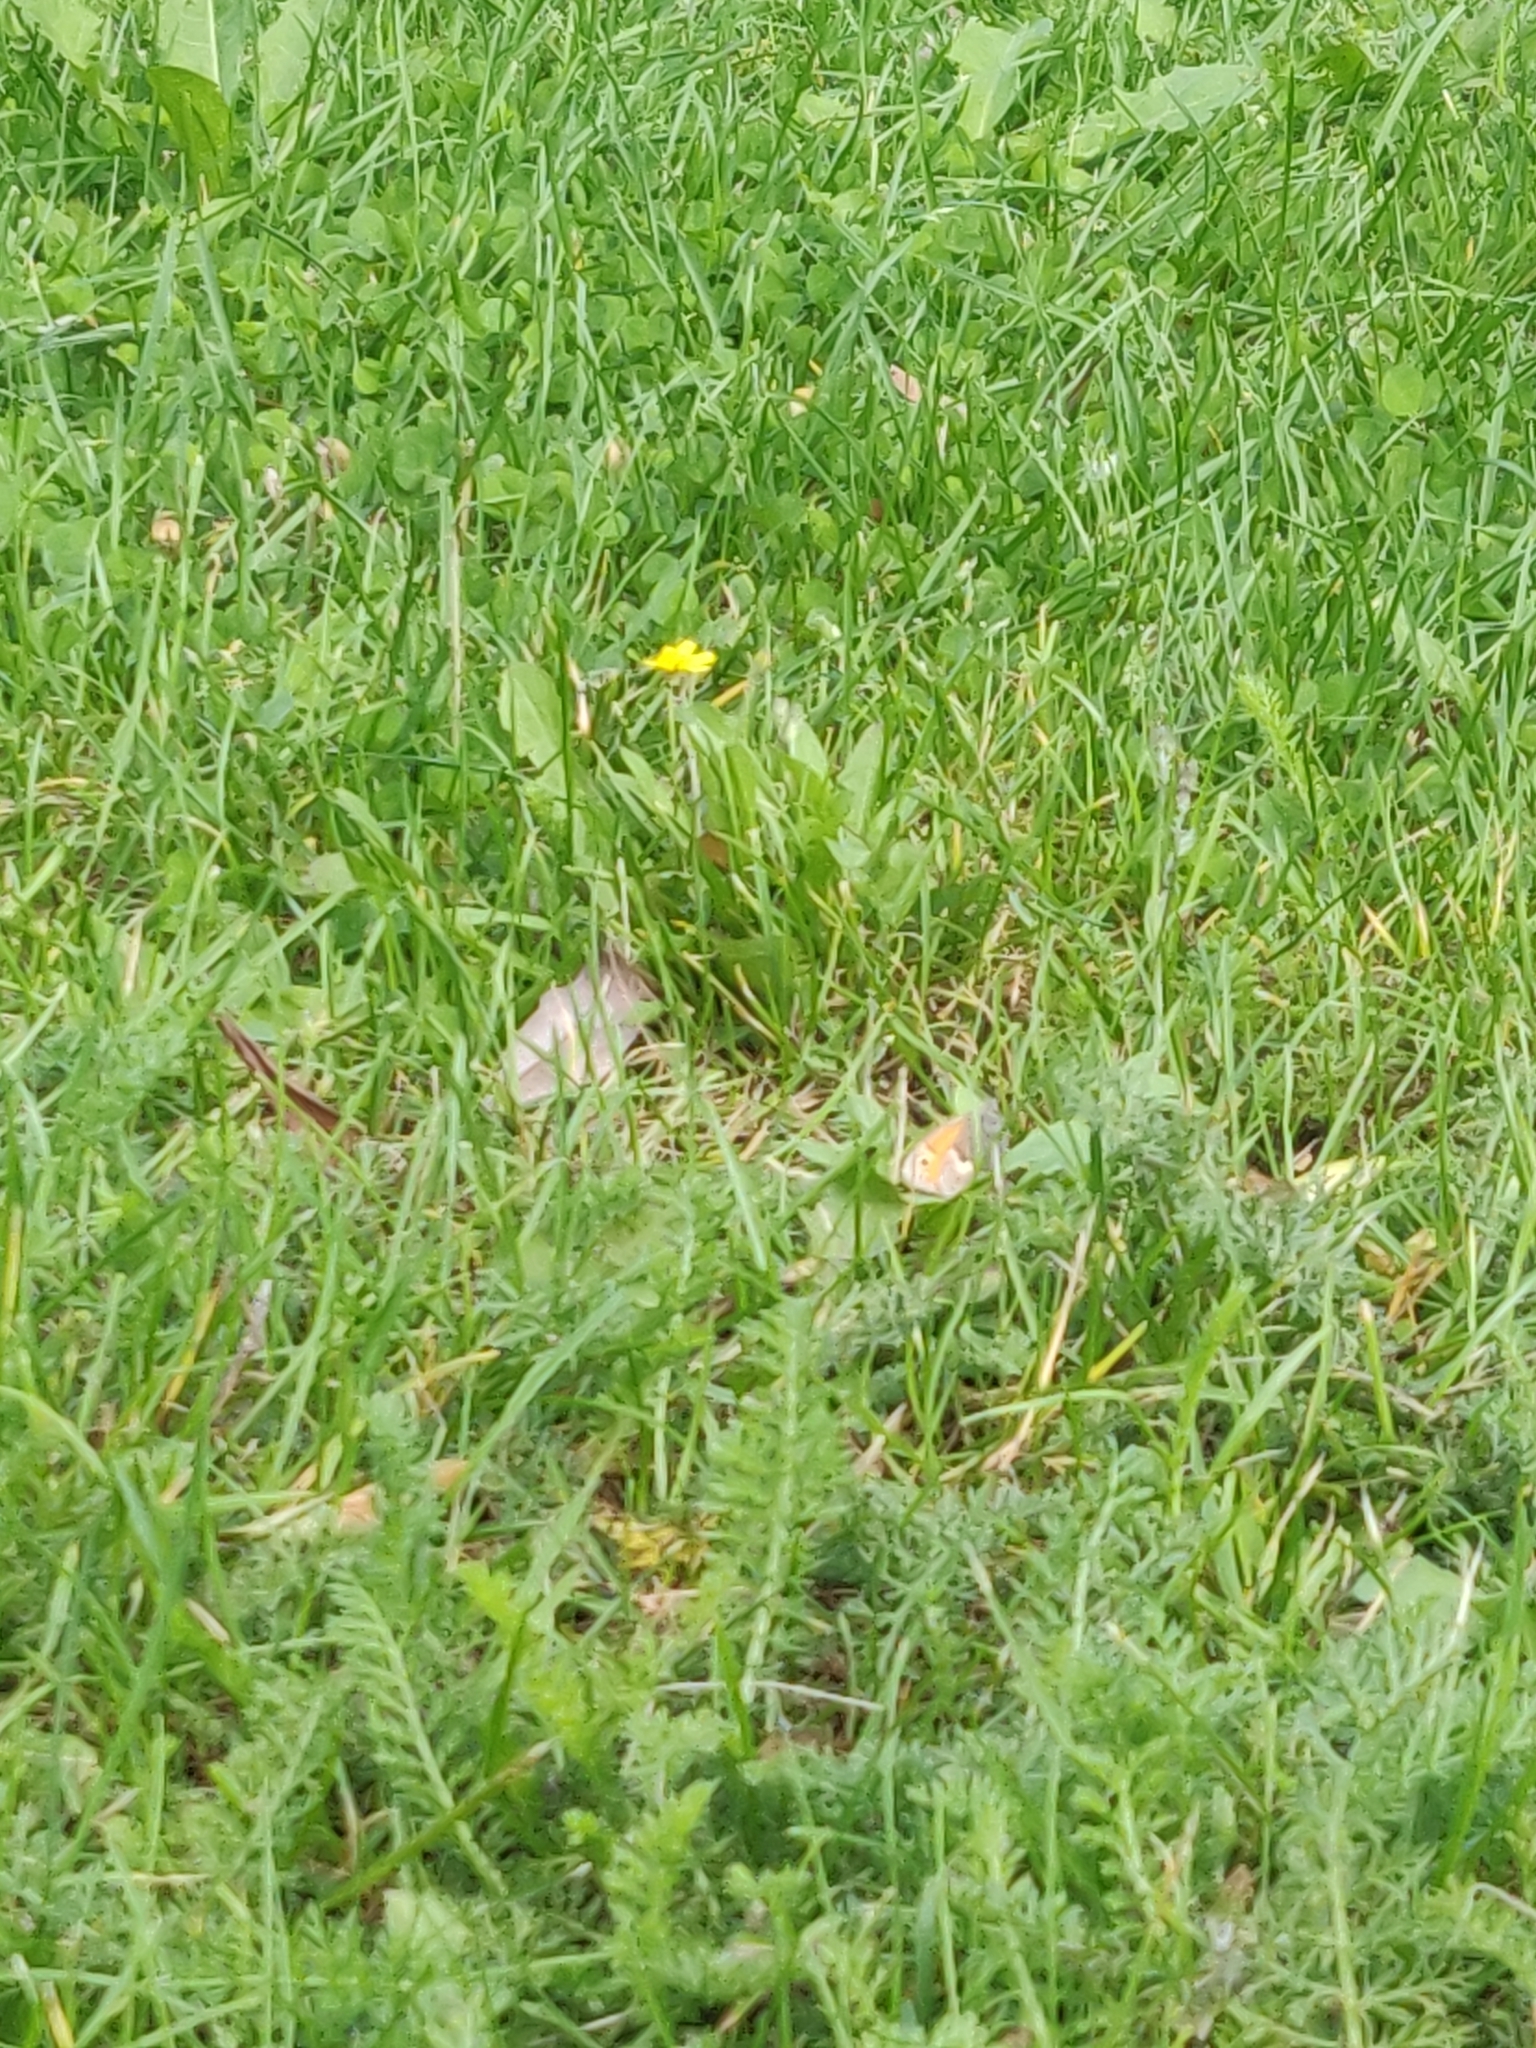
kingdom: Animalia
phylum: Arthropoda
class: Insecta
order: Lepidoptera
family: Nymphalidae
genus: Coenonympha
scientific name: Coenonympha pamphilus
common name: Small heath
